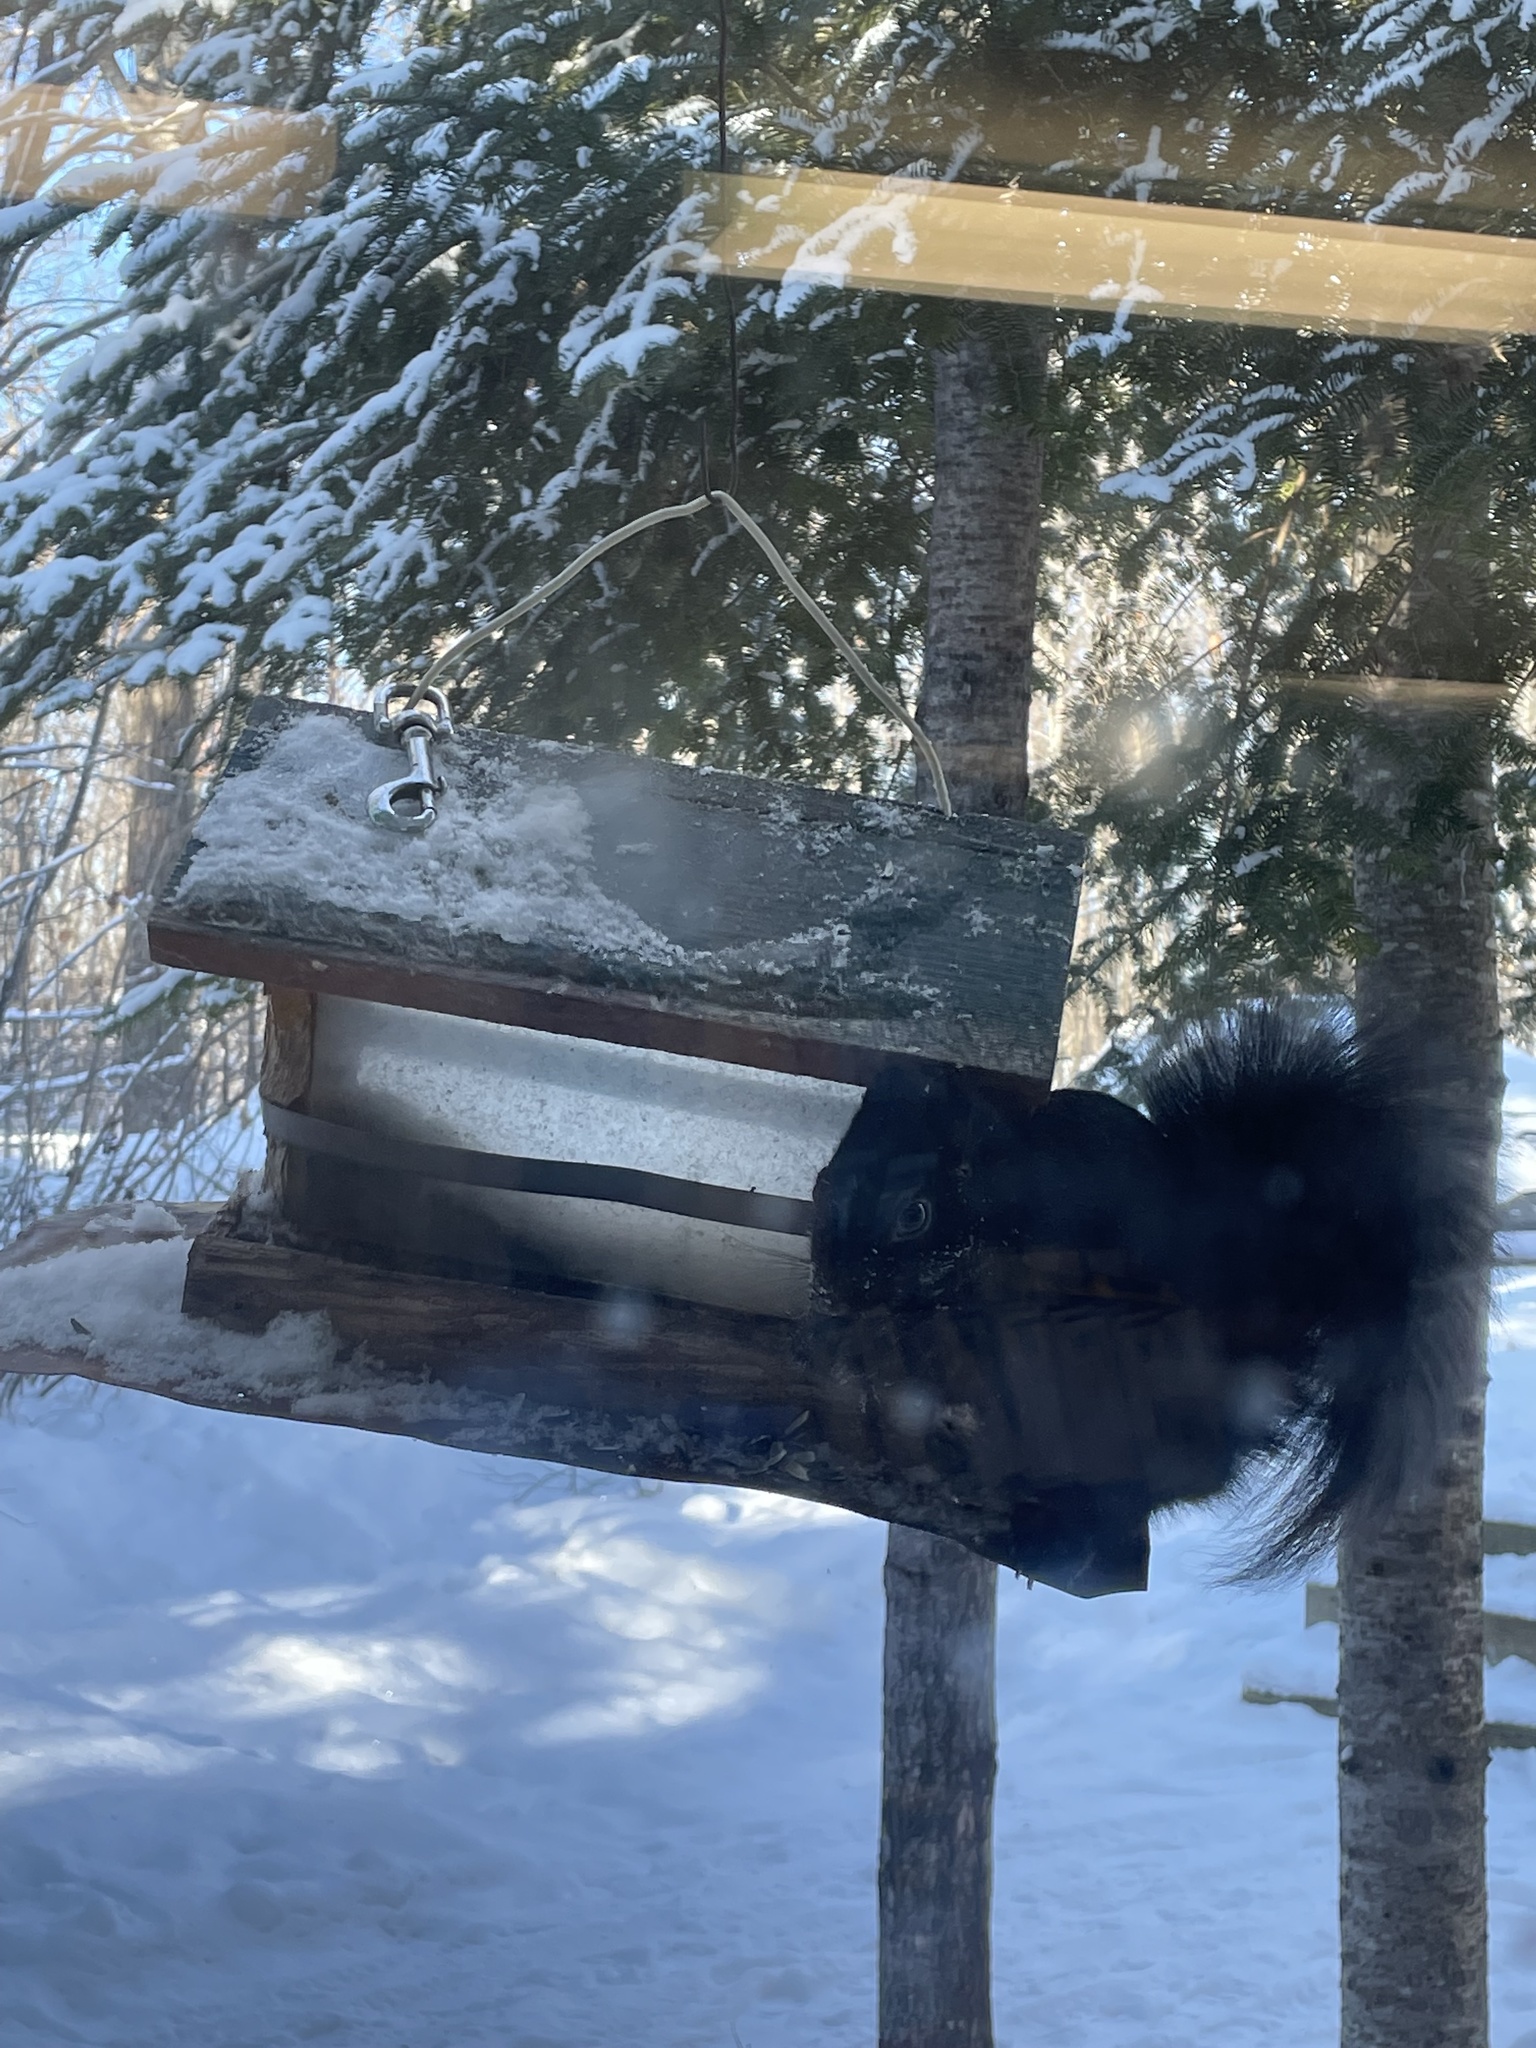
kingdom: Animalia
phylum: Chordata
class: Mammalia
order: Rodentia
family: Sciuridae
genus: Sciurus
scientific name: Sciurus carolinensis
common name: Eastern gray squirrel
